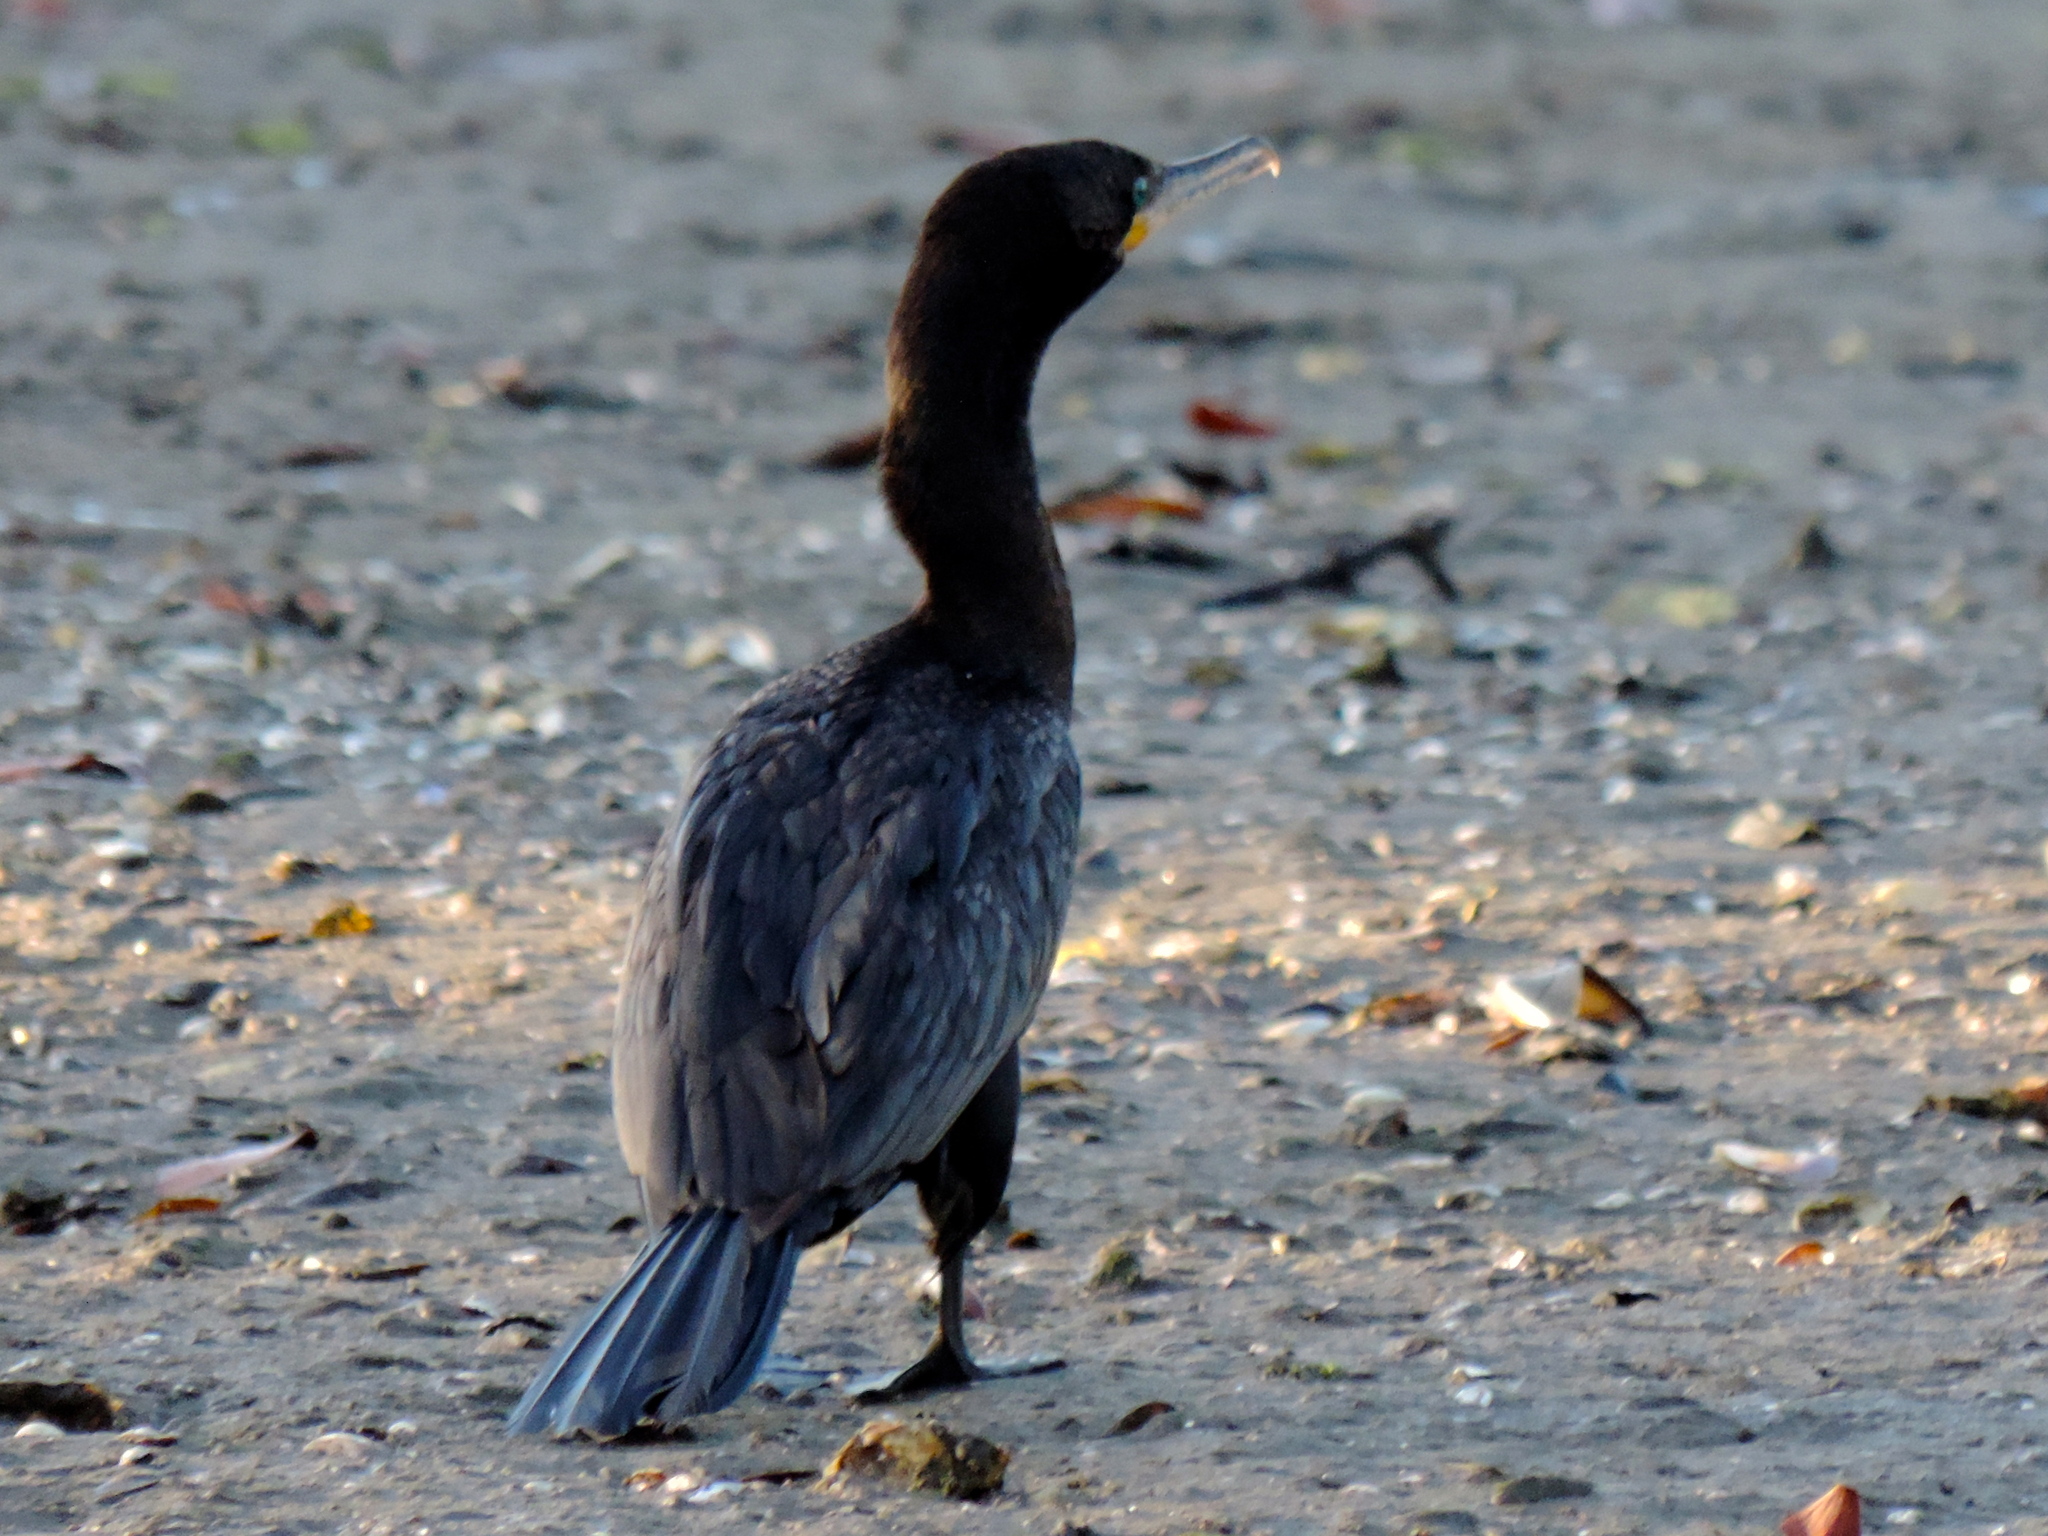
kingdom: Animalia
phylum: Chordata
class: Aves
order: Suliformes
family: Phalacrocoracidae
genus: Phalacrocorax
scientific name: Phalacrocorax brasilianus
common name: Neotropic cormorant
